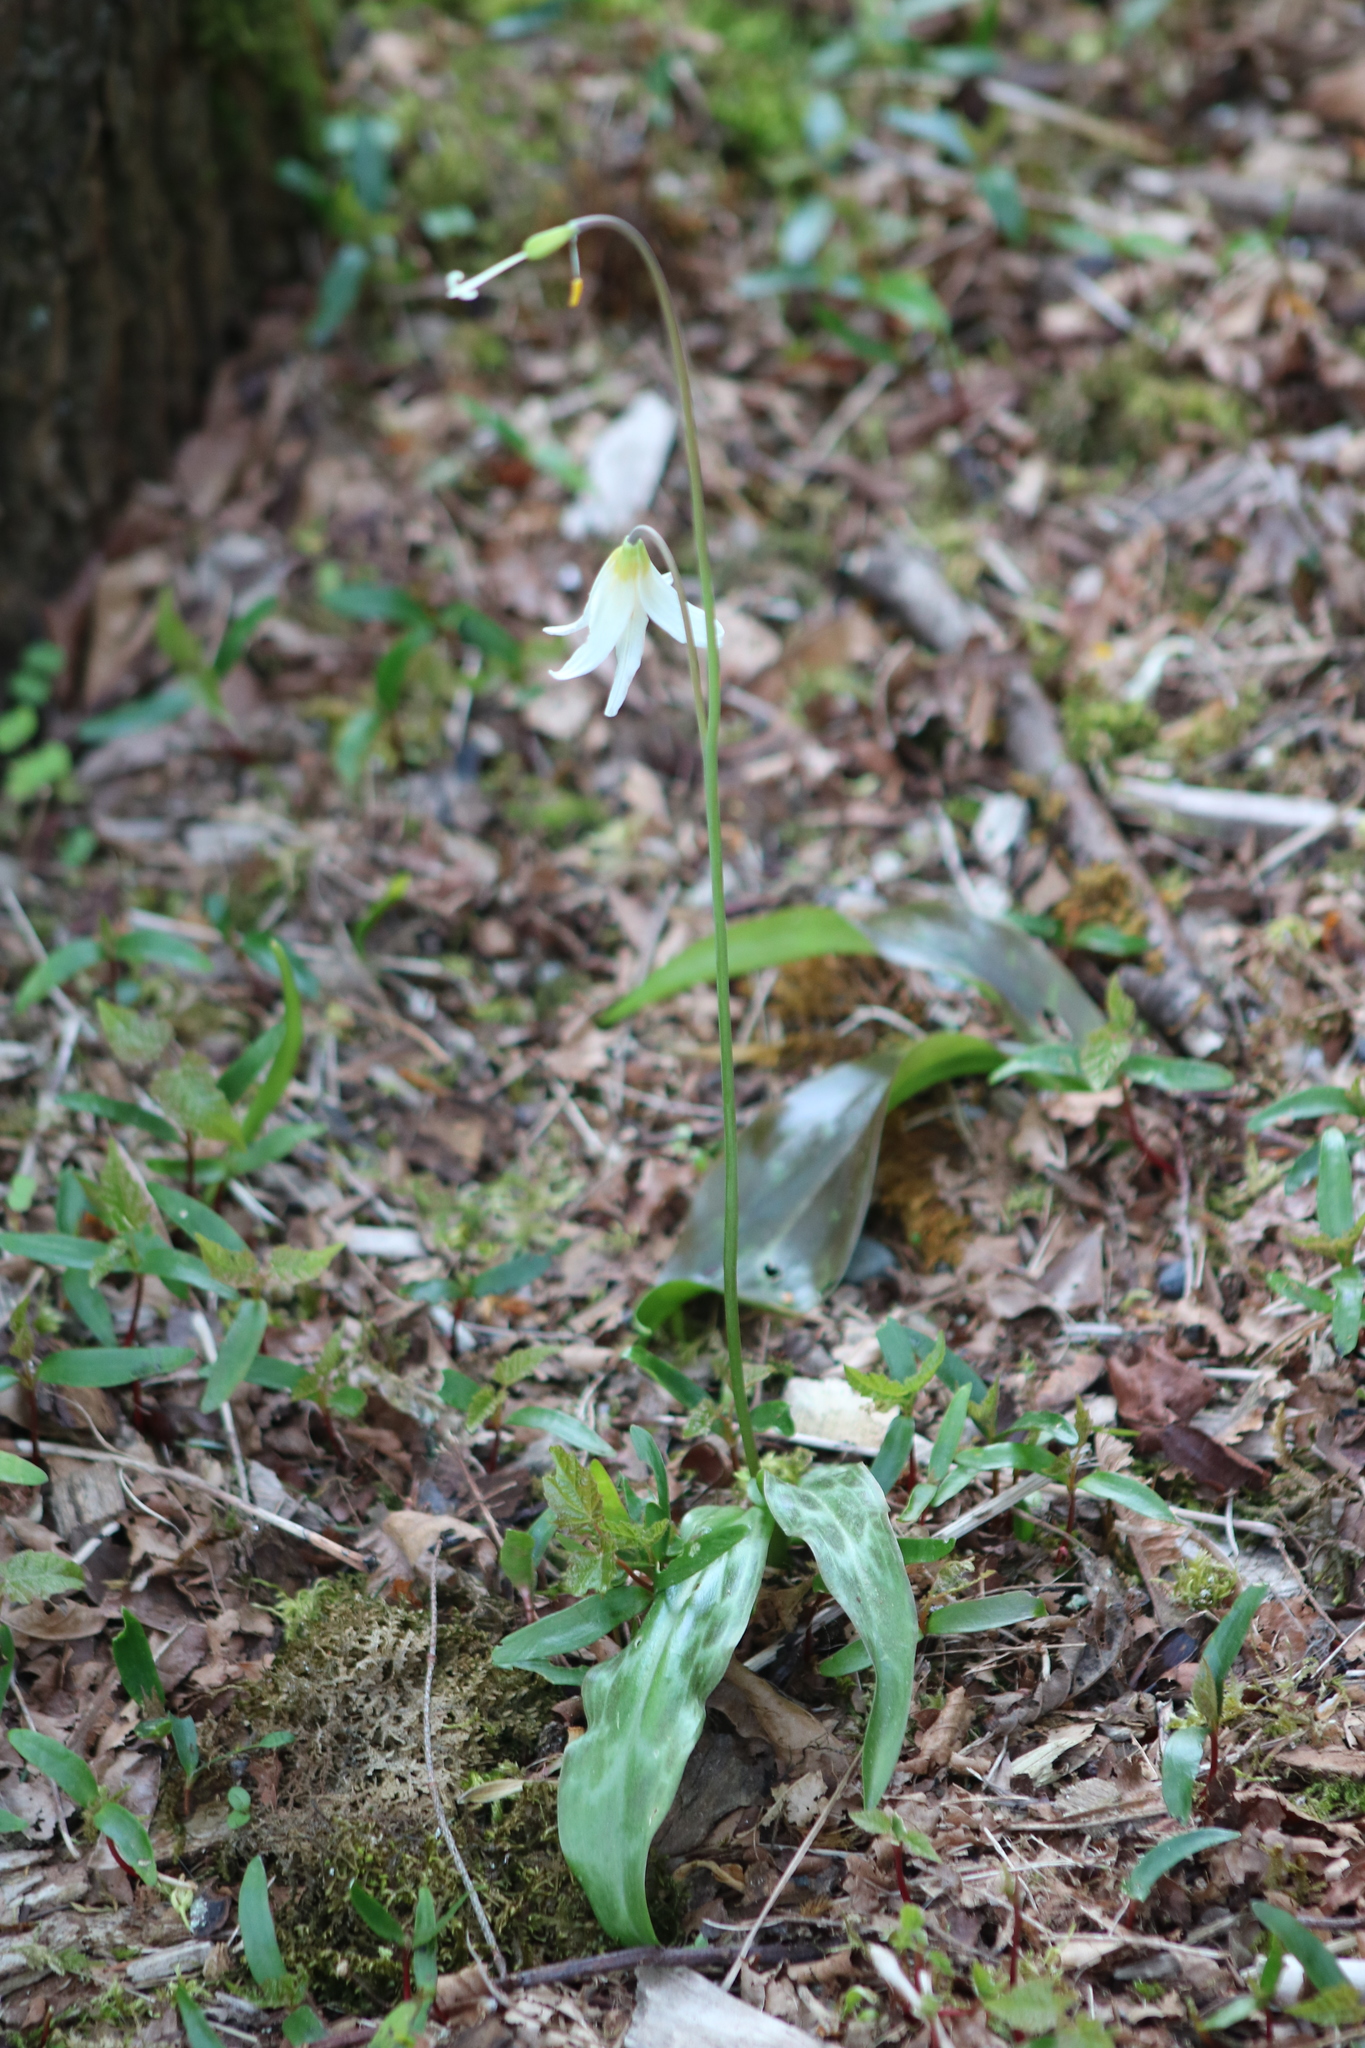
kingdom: Plantae
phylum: Tracheophyta
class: Liliopsida
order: Liliales
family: Liliaceae
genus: Erythronium
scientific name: Erythronium oregonum
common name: Giant adder's-tongue
